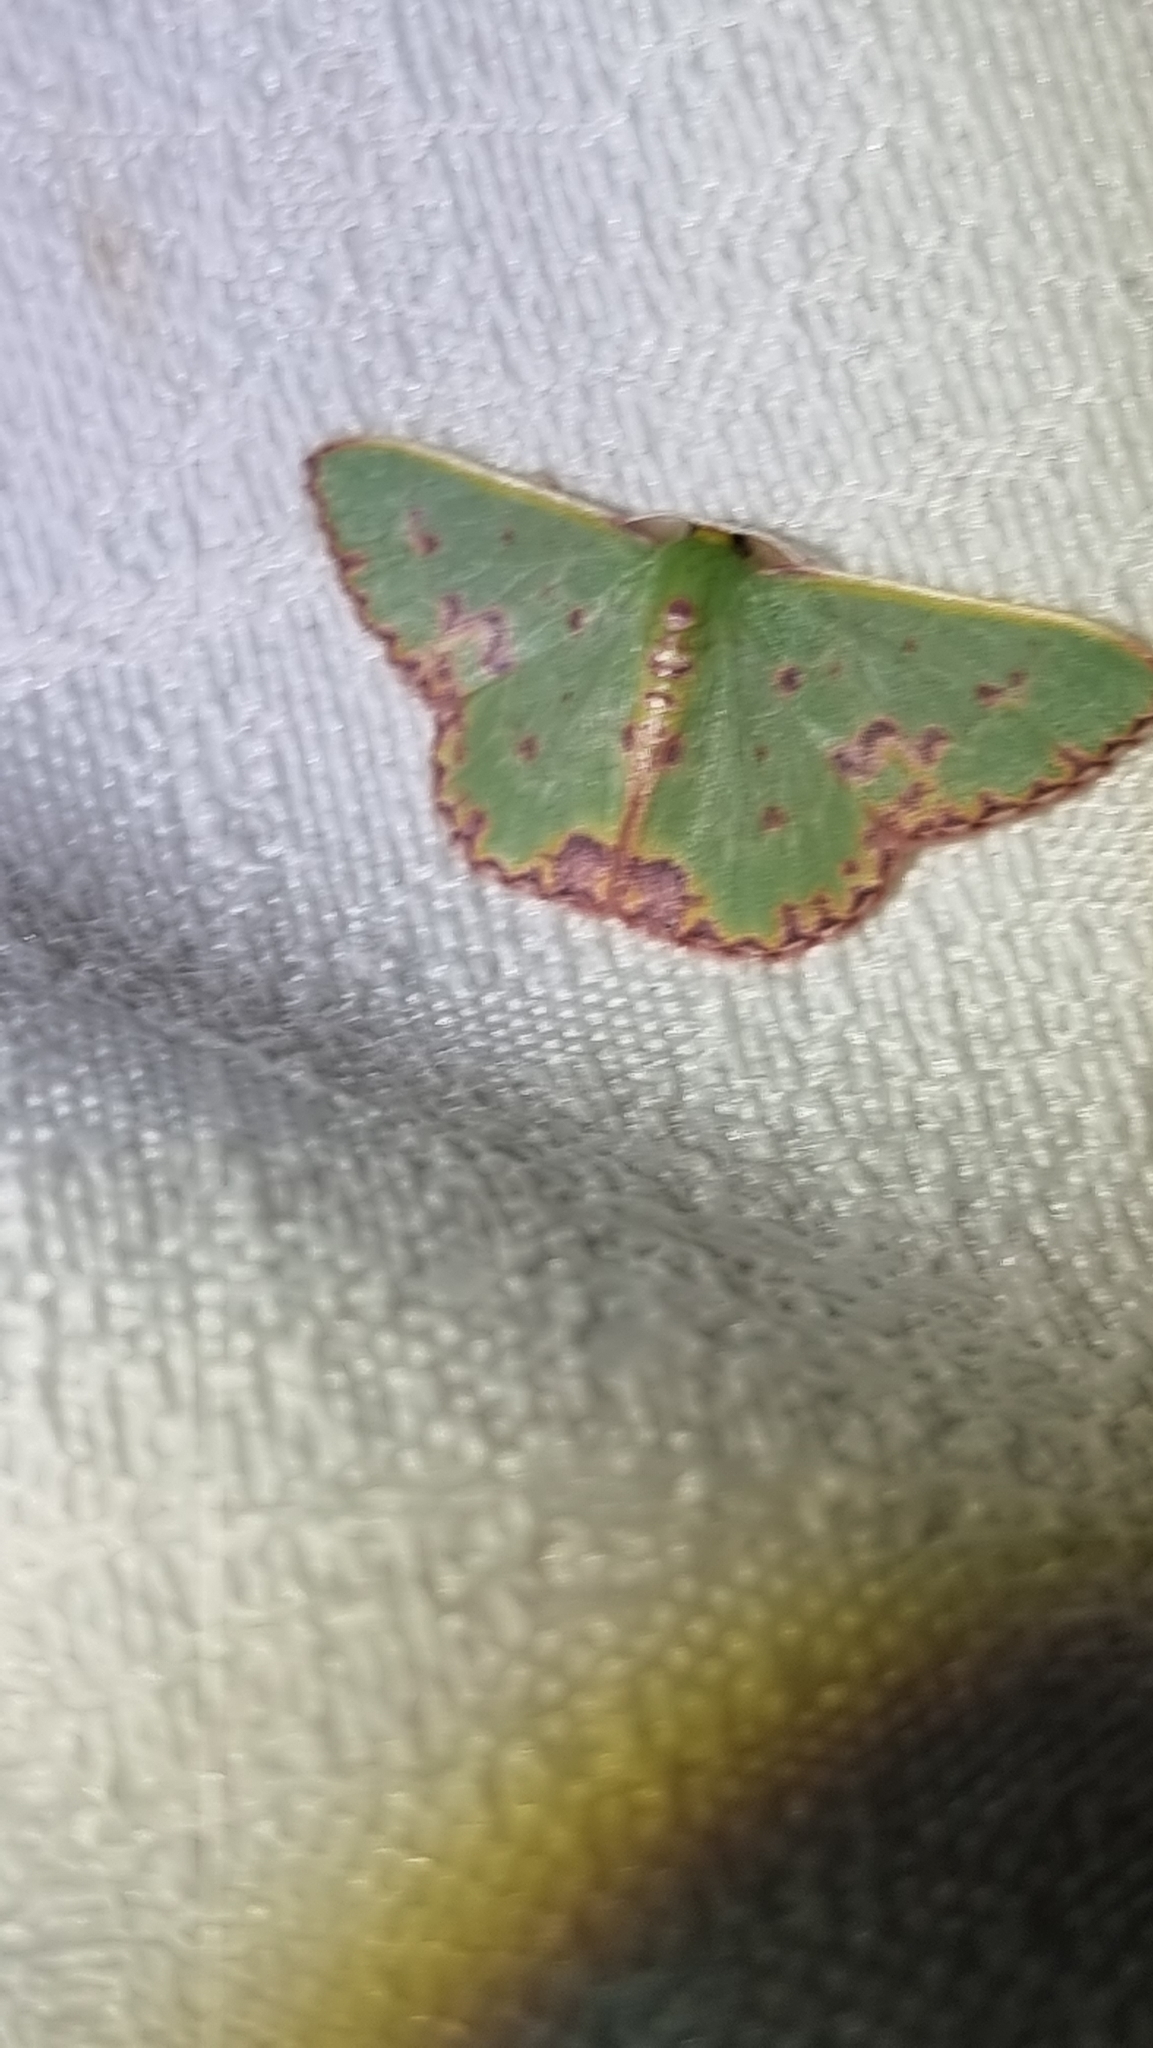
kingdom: Animalia
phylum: Arthropoda
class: Insecta
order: Lepidoptera
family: Geometridae
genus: Prasinocyma
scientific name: Prasinocyma rhodocosma
